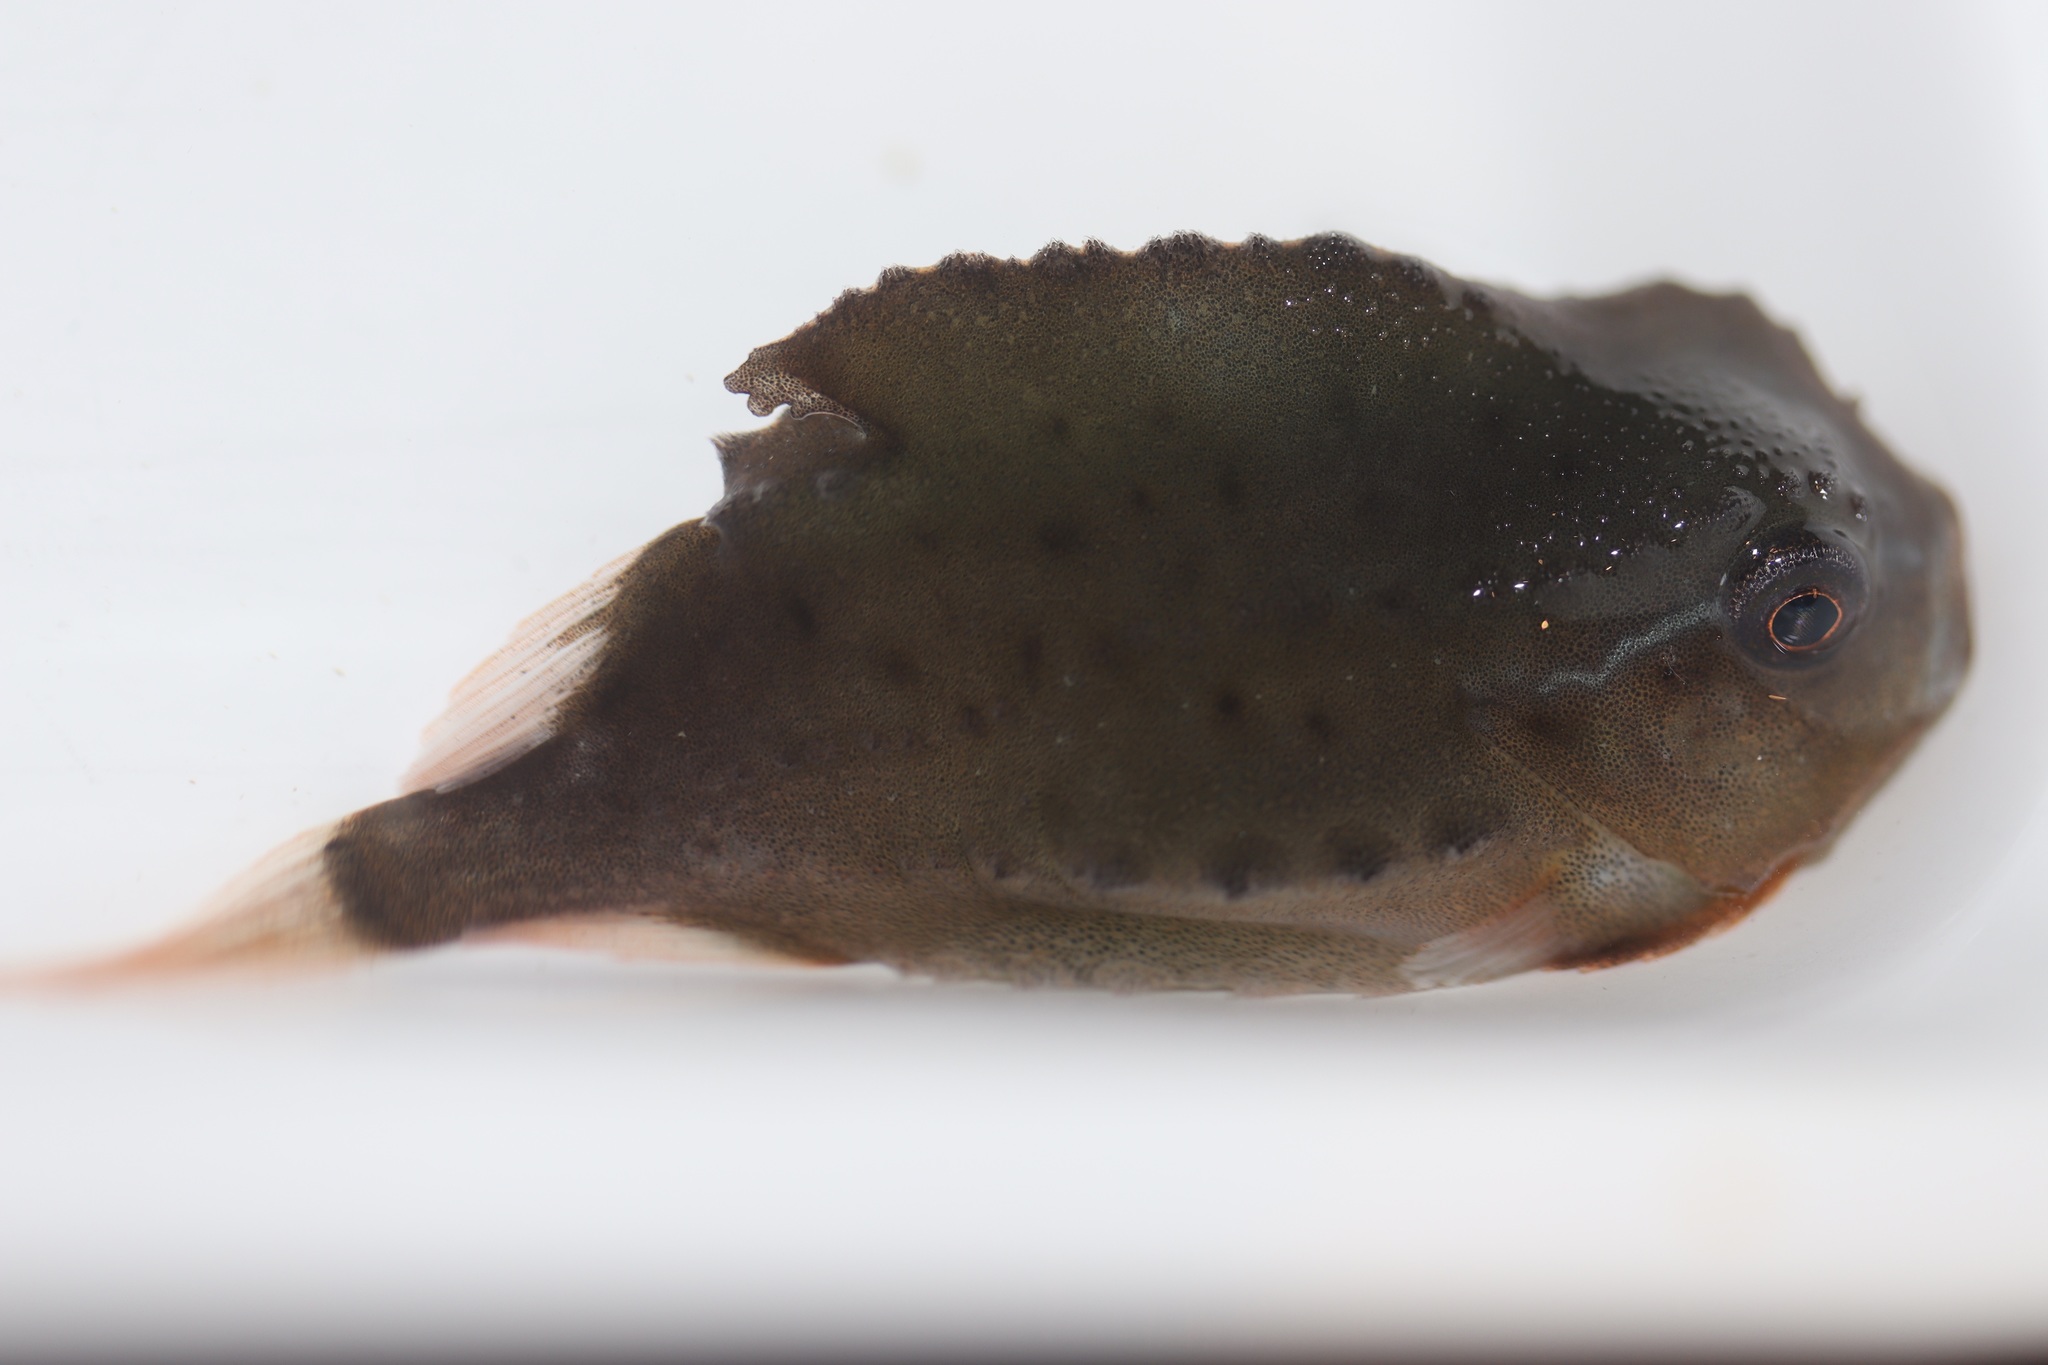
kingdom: Animalia
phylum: Chordata
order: Scorpaeniformes
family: Cyclopteridae
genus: Cyclopterus
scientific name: Cyclopterus lumpus
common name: Lumpsucker
